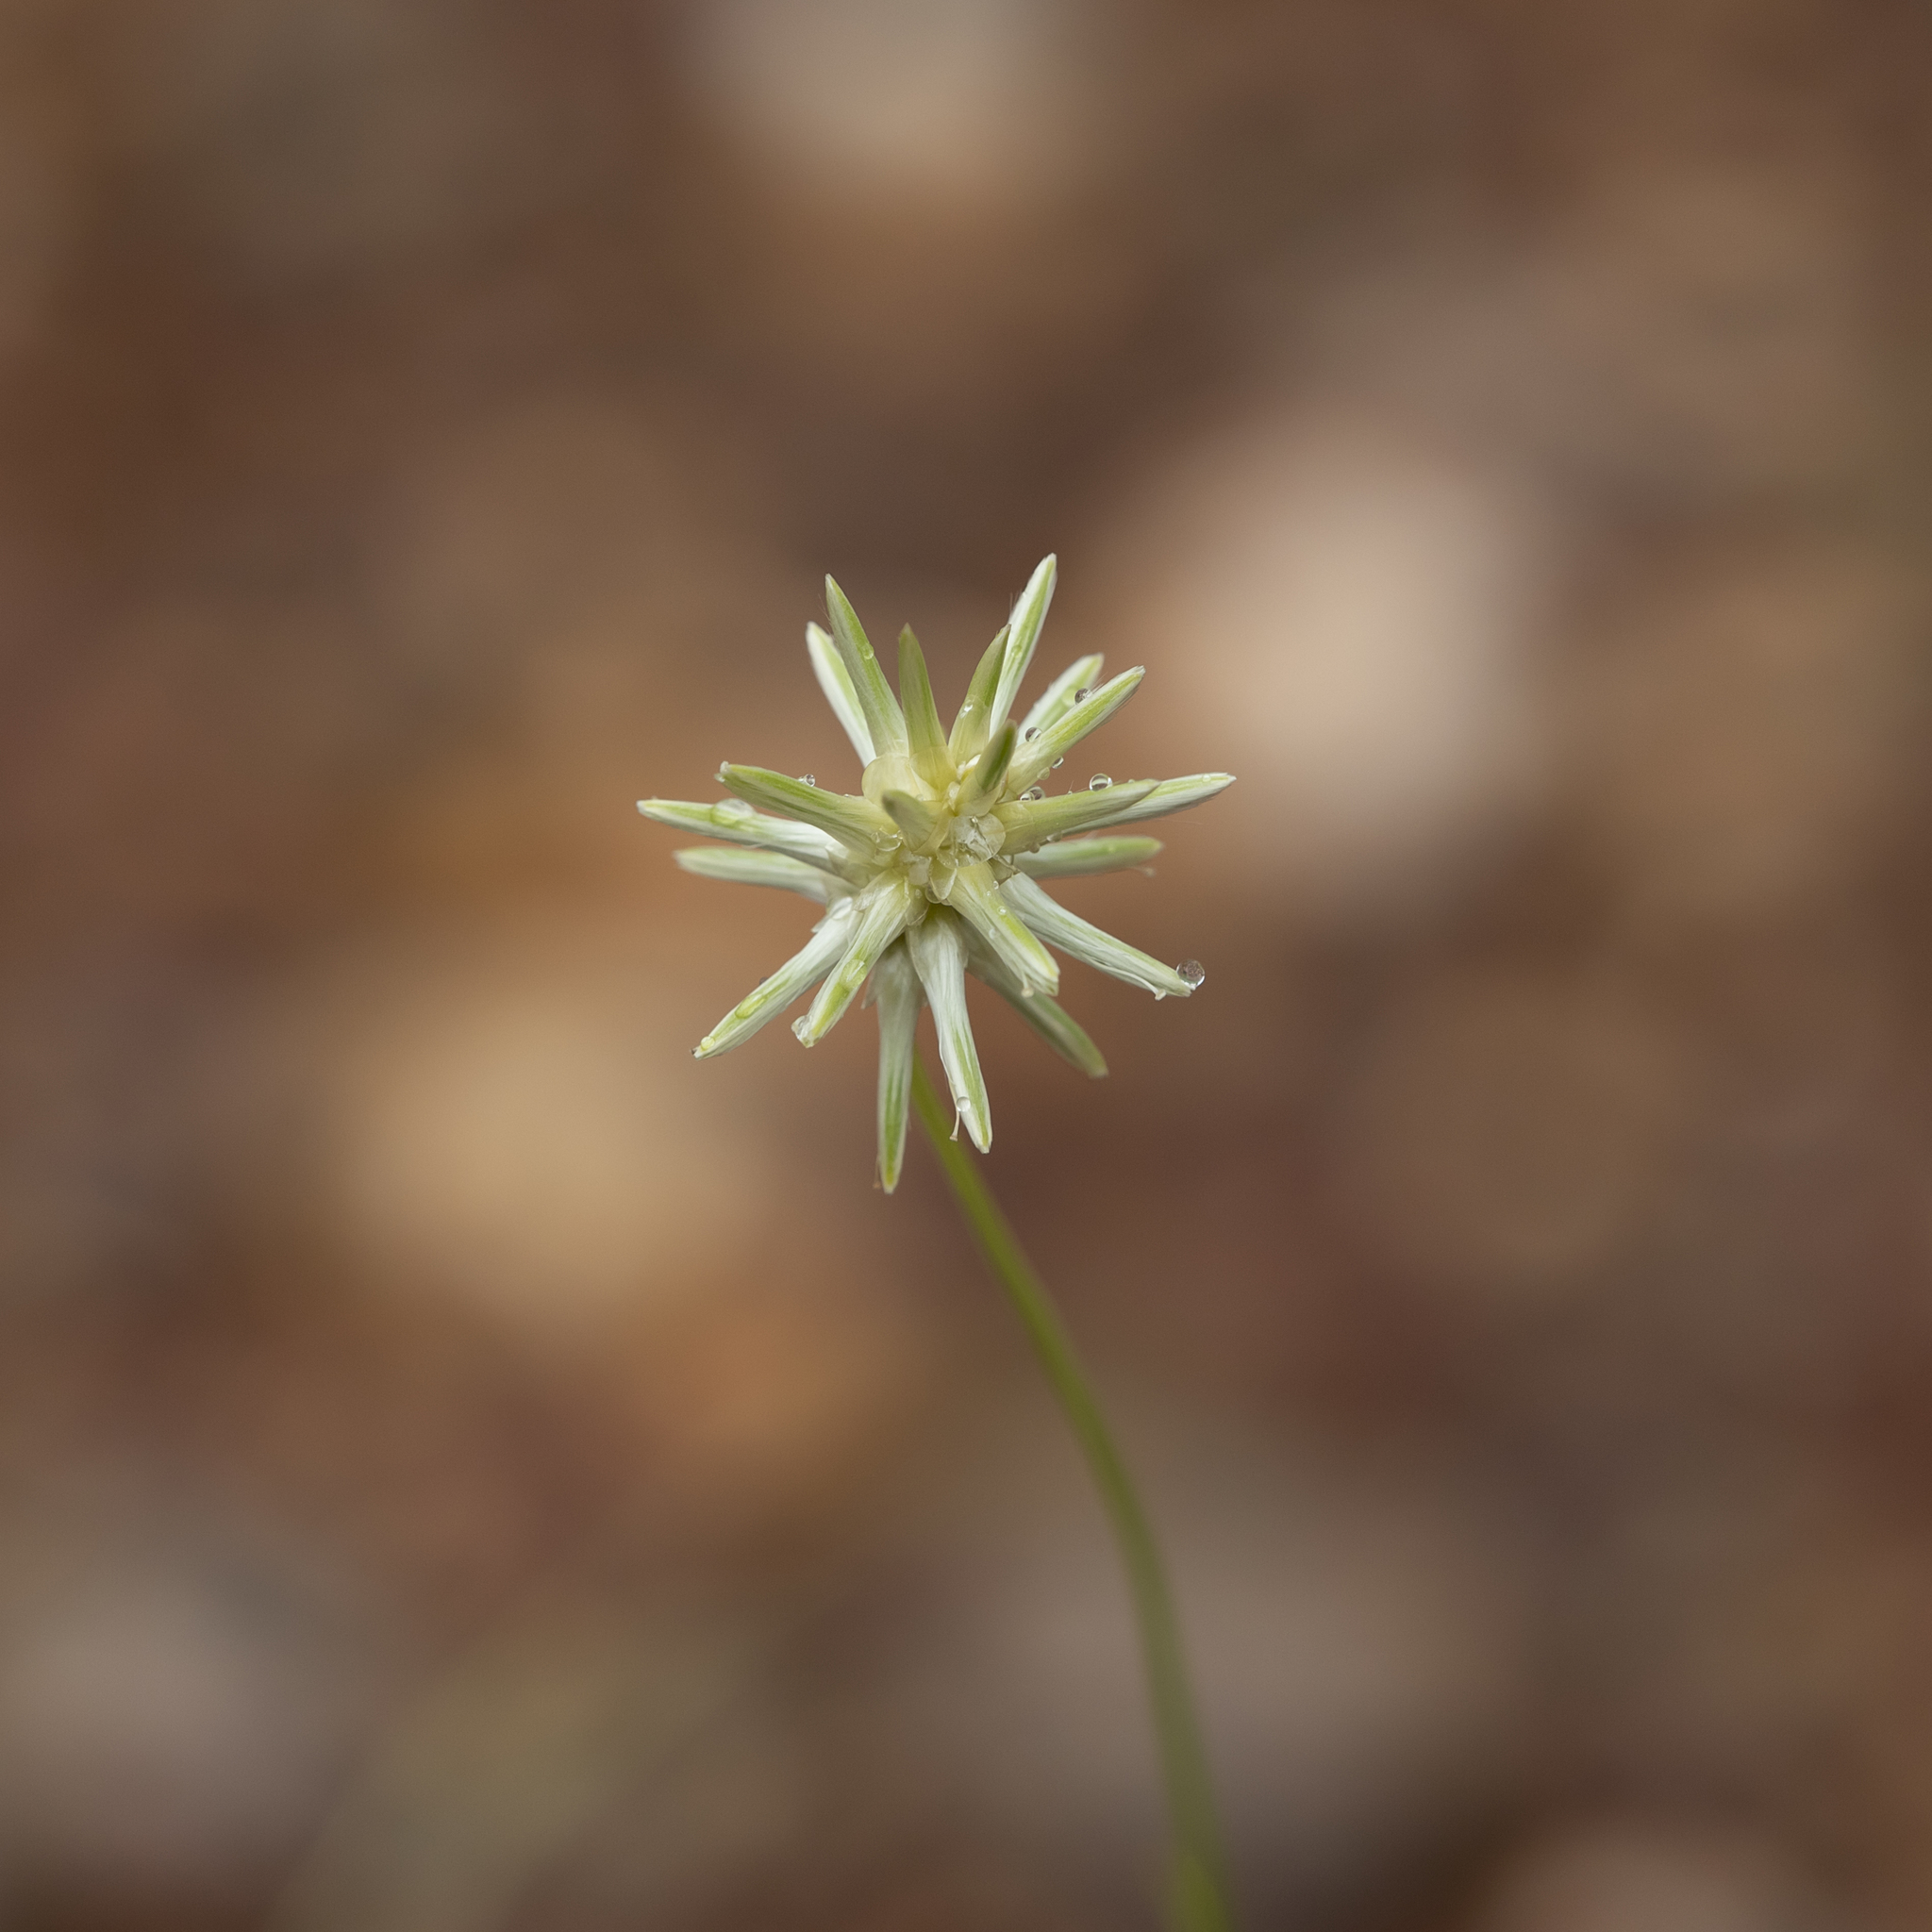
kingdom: Plantae
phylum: Tracheophyta
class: Magnoliopsida
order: Caryophyllales
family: Amaranthaceae
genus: Ptilotus
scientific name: Ptilotus fusiformis
